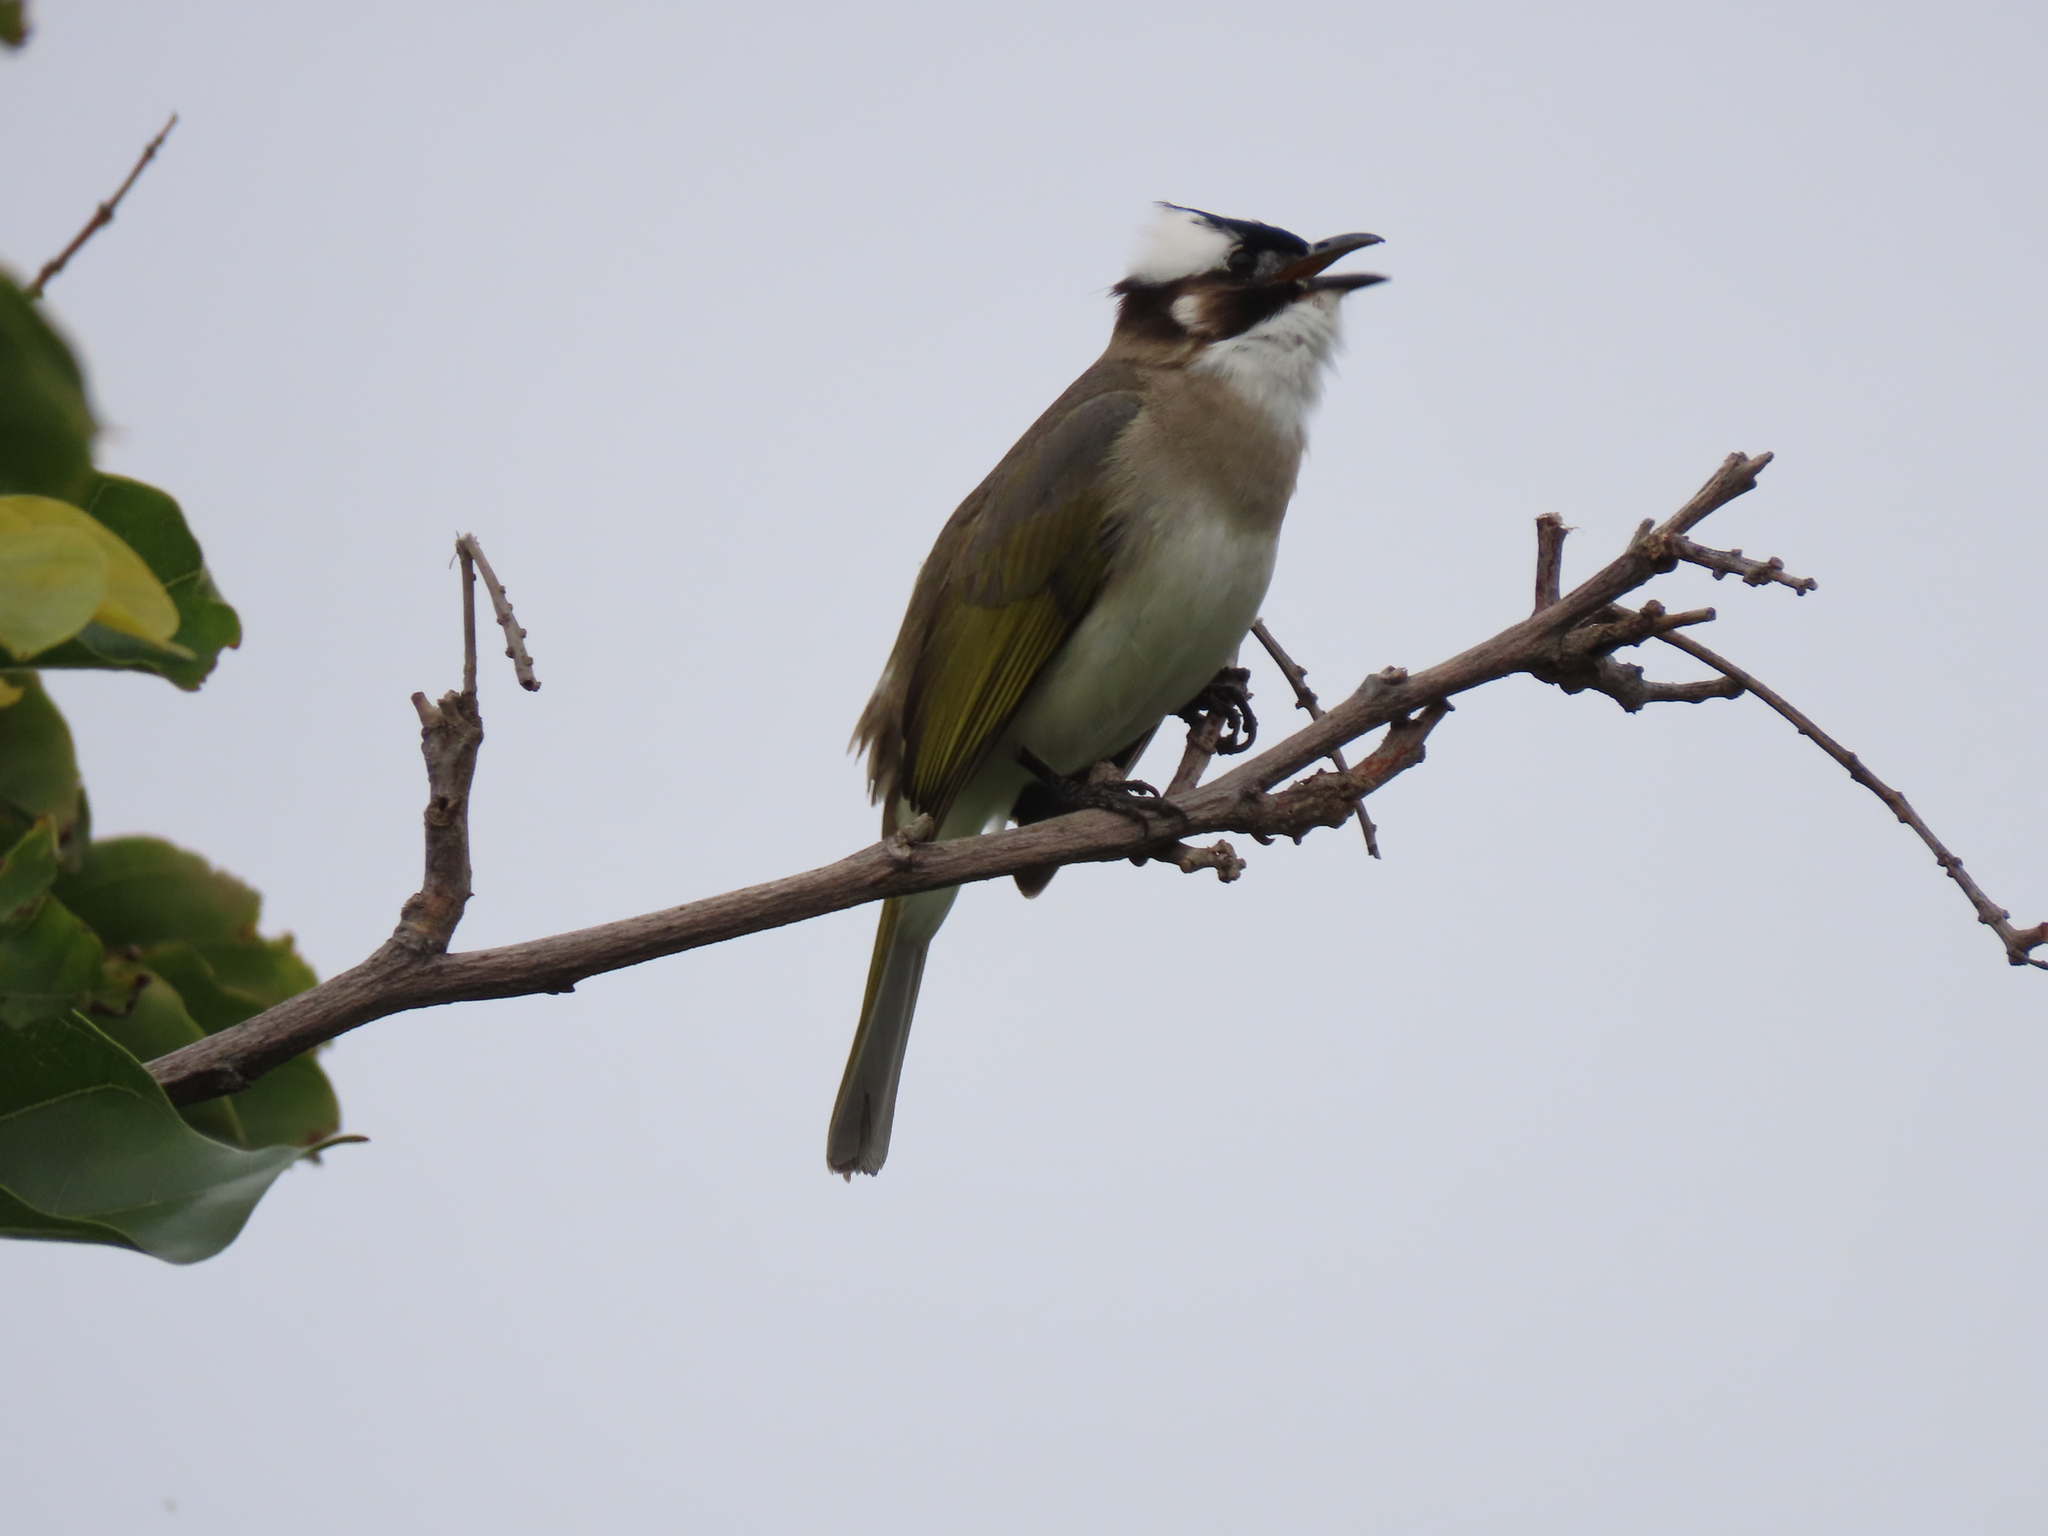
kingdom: Animalia
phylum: Chordata
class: Aves
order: Passeriformes
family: Pycnonotidae
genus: Pycnonotus
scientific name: Pycnonotus sinensis
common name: Light-vented bulbul
